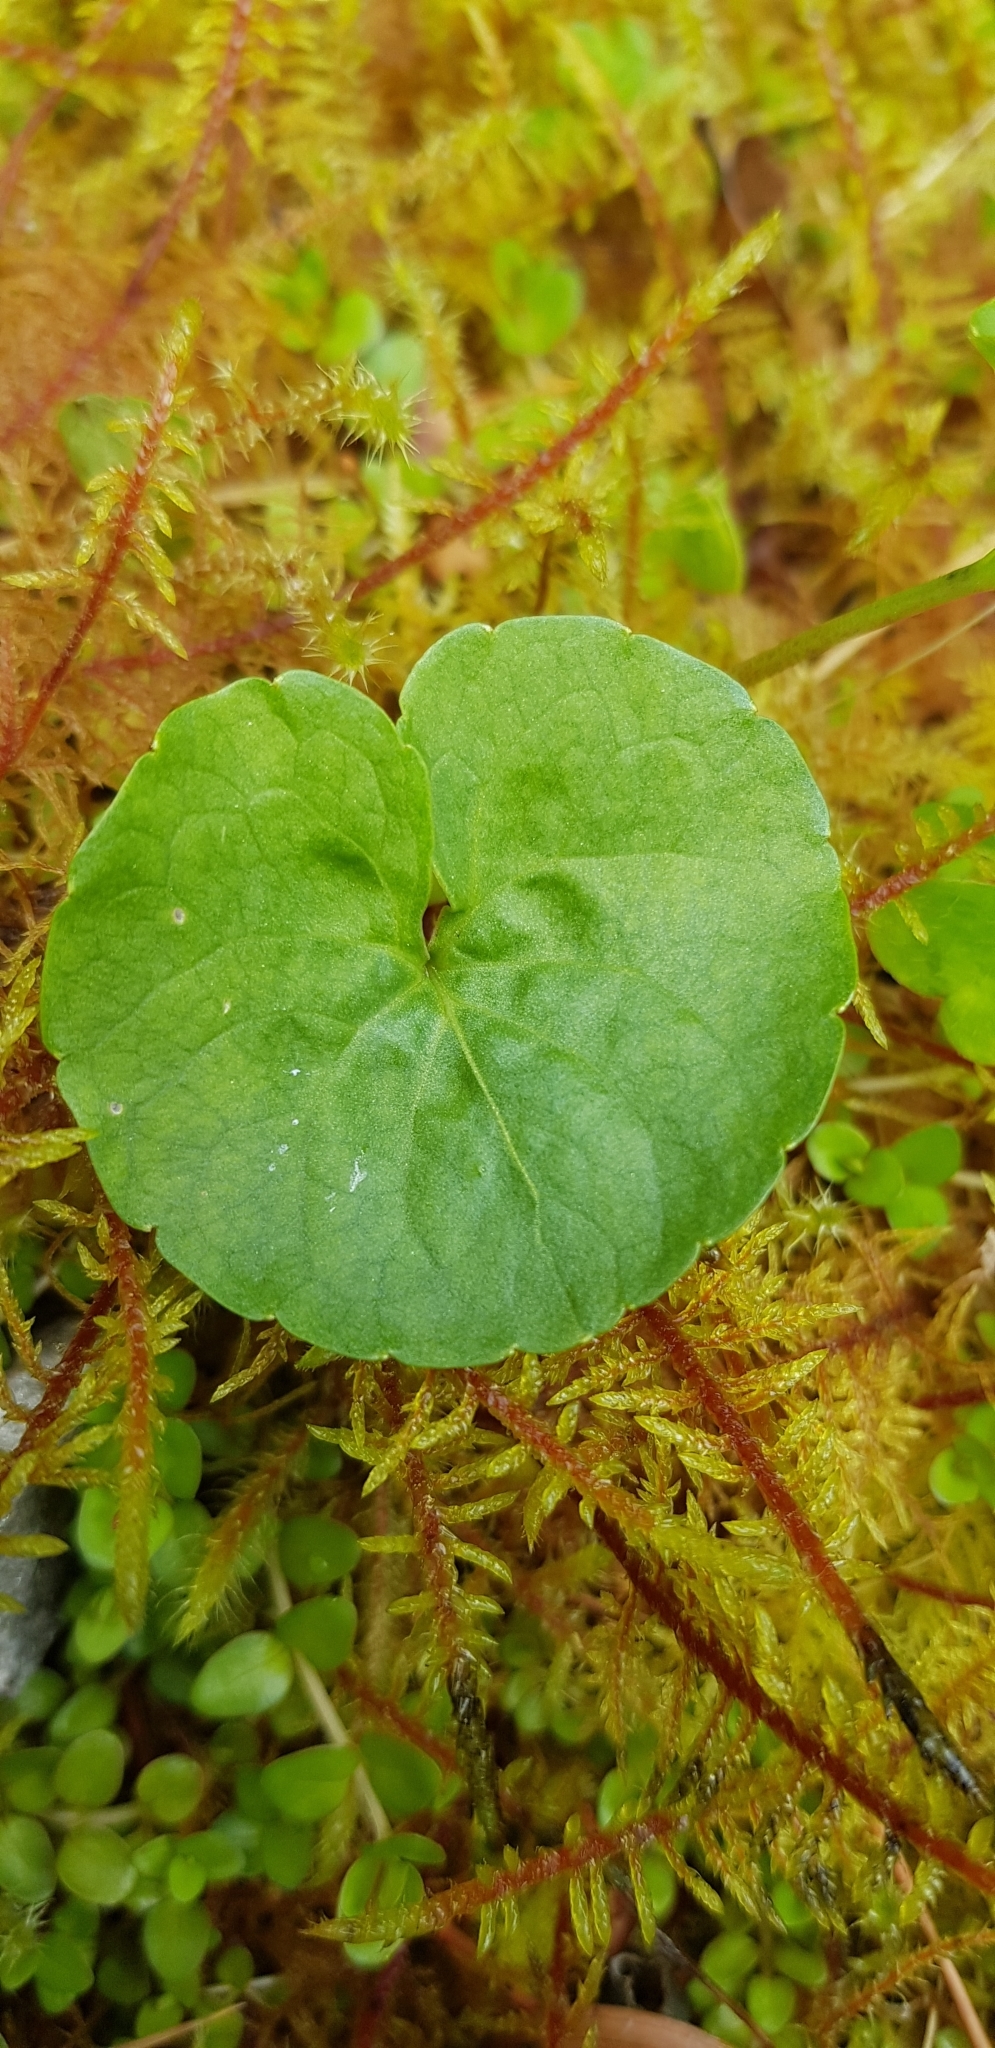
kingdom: Plantae
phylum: Tracheophyta
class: Magnoliopsida
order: Malpighiales
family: Violaceae
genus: Viola
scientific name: Viola palustris
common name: Marsh violet
